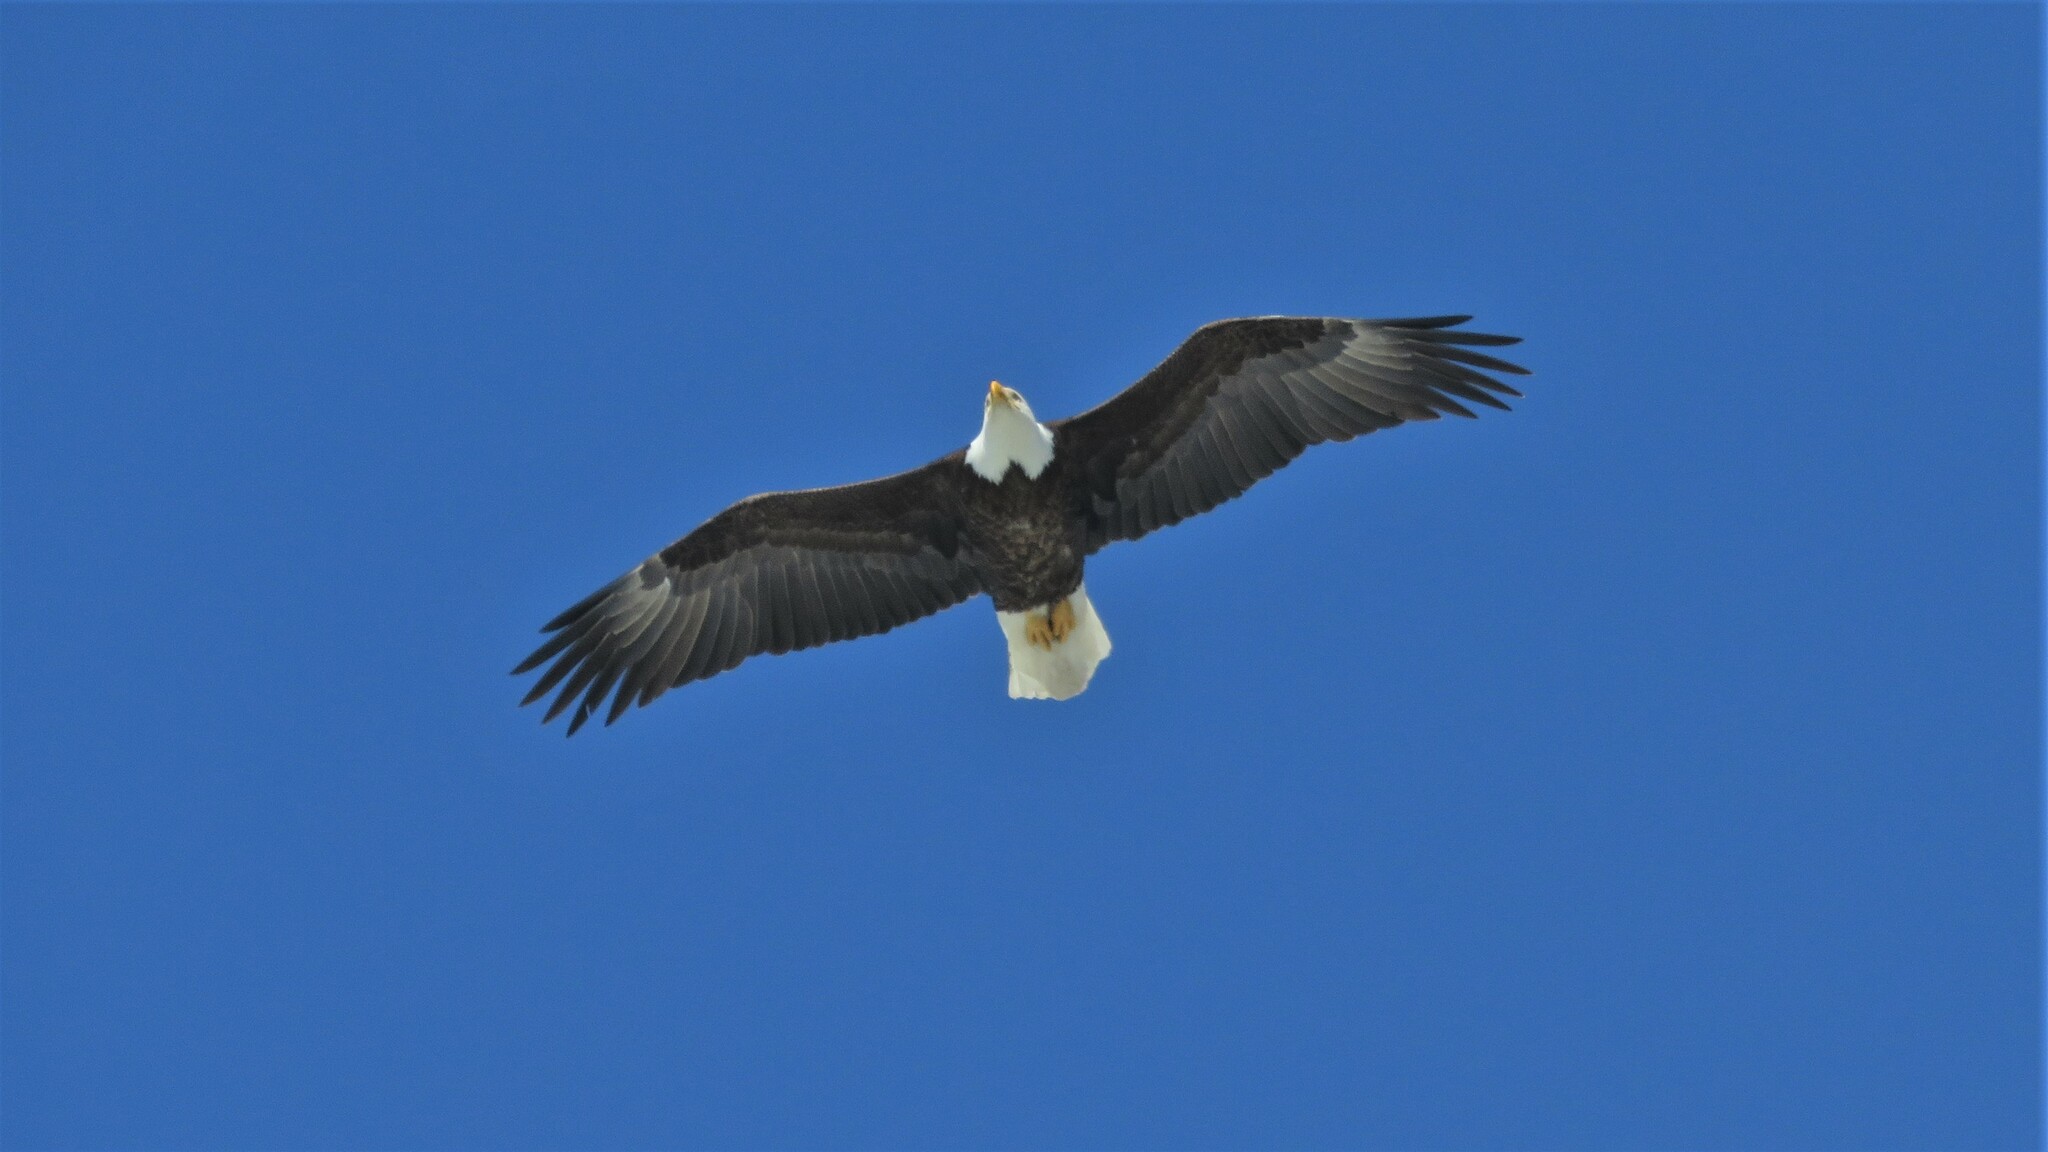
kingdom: Animalia
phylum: Chordata
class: Aves
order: Accipitriformes
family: Accipitridae
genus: Haliaeetus
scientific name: Haliaeetus leucocephalus
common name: Bald eagle
